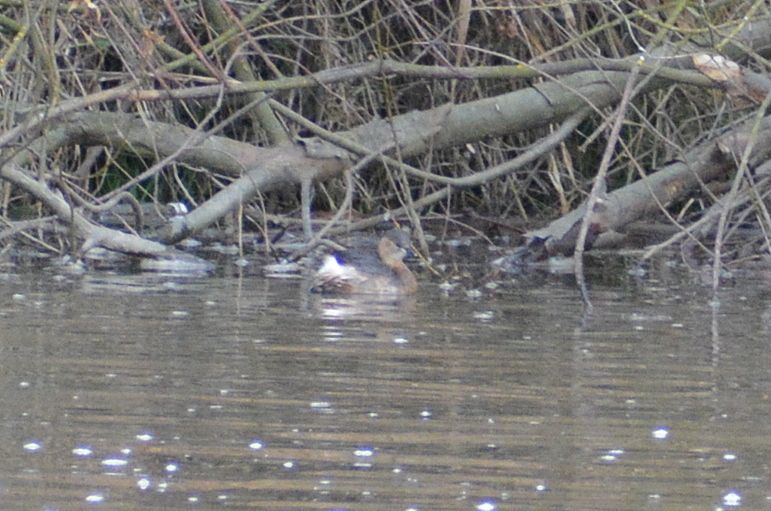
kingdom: Animalia
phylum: Chordata
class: Aves
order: Podicipediformes
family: Podicipedidae
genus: Tachybaptus
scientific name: Tachybaptus ruficollis
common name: Little grebe
